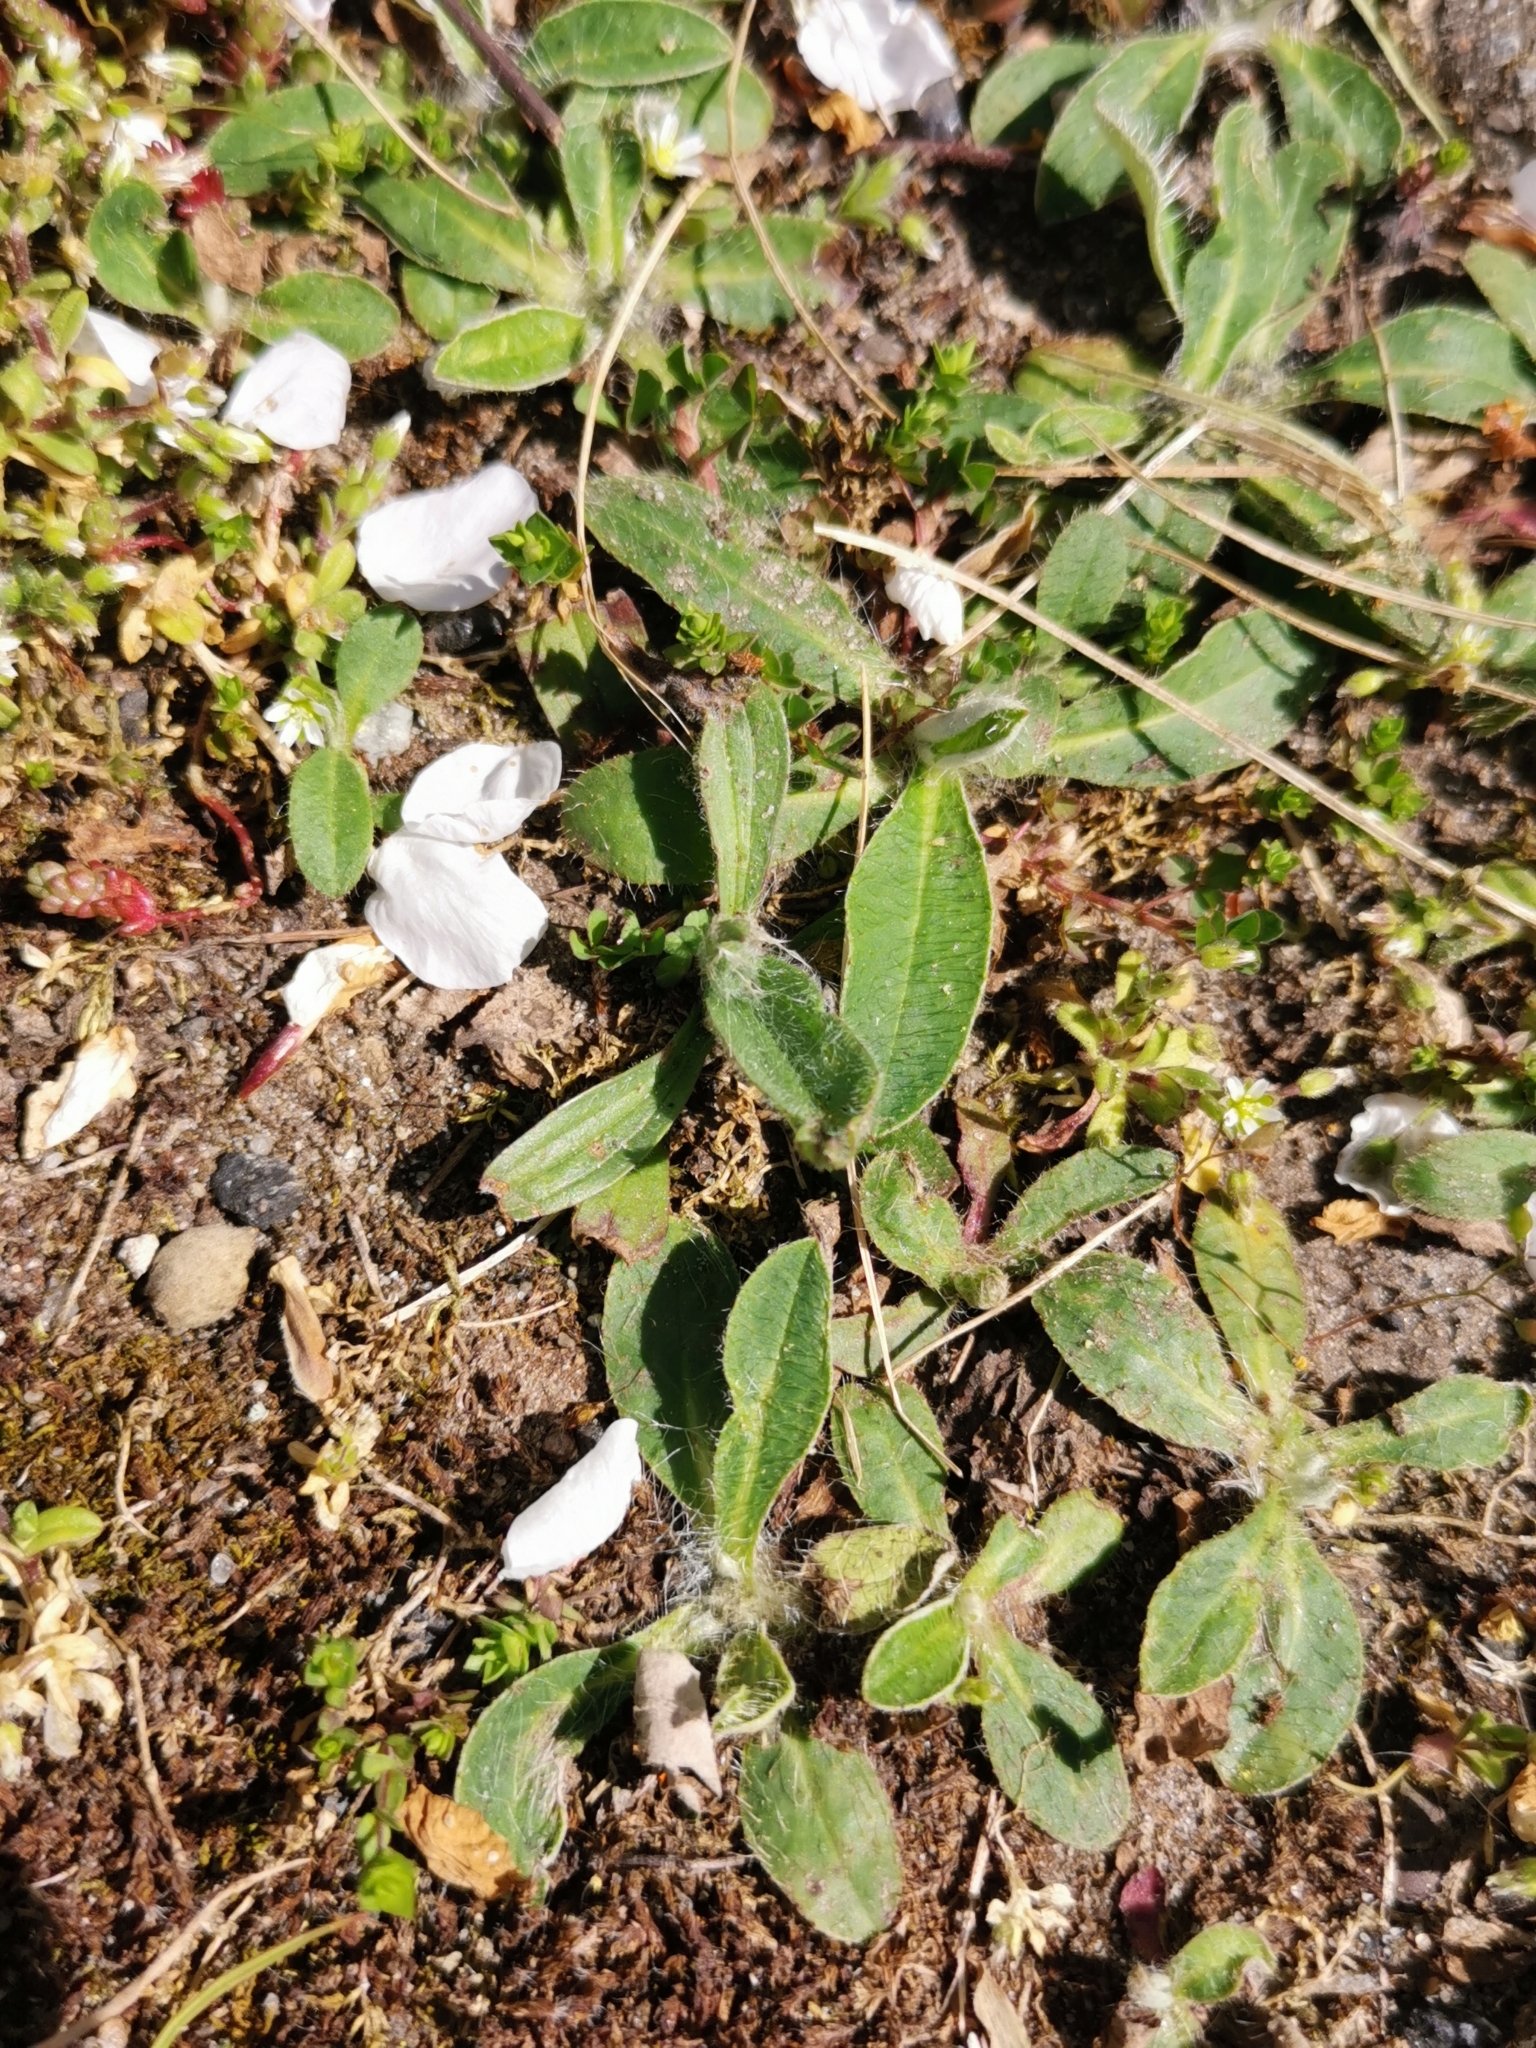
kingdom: Plantae
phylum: Tracheophyta
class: Magnoliopsida
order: Asterales
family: Asteraceae
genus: Pilosella
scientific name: Pilosella officinarum
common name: Mouse-ear hawkweed
